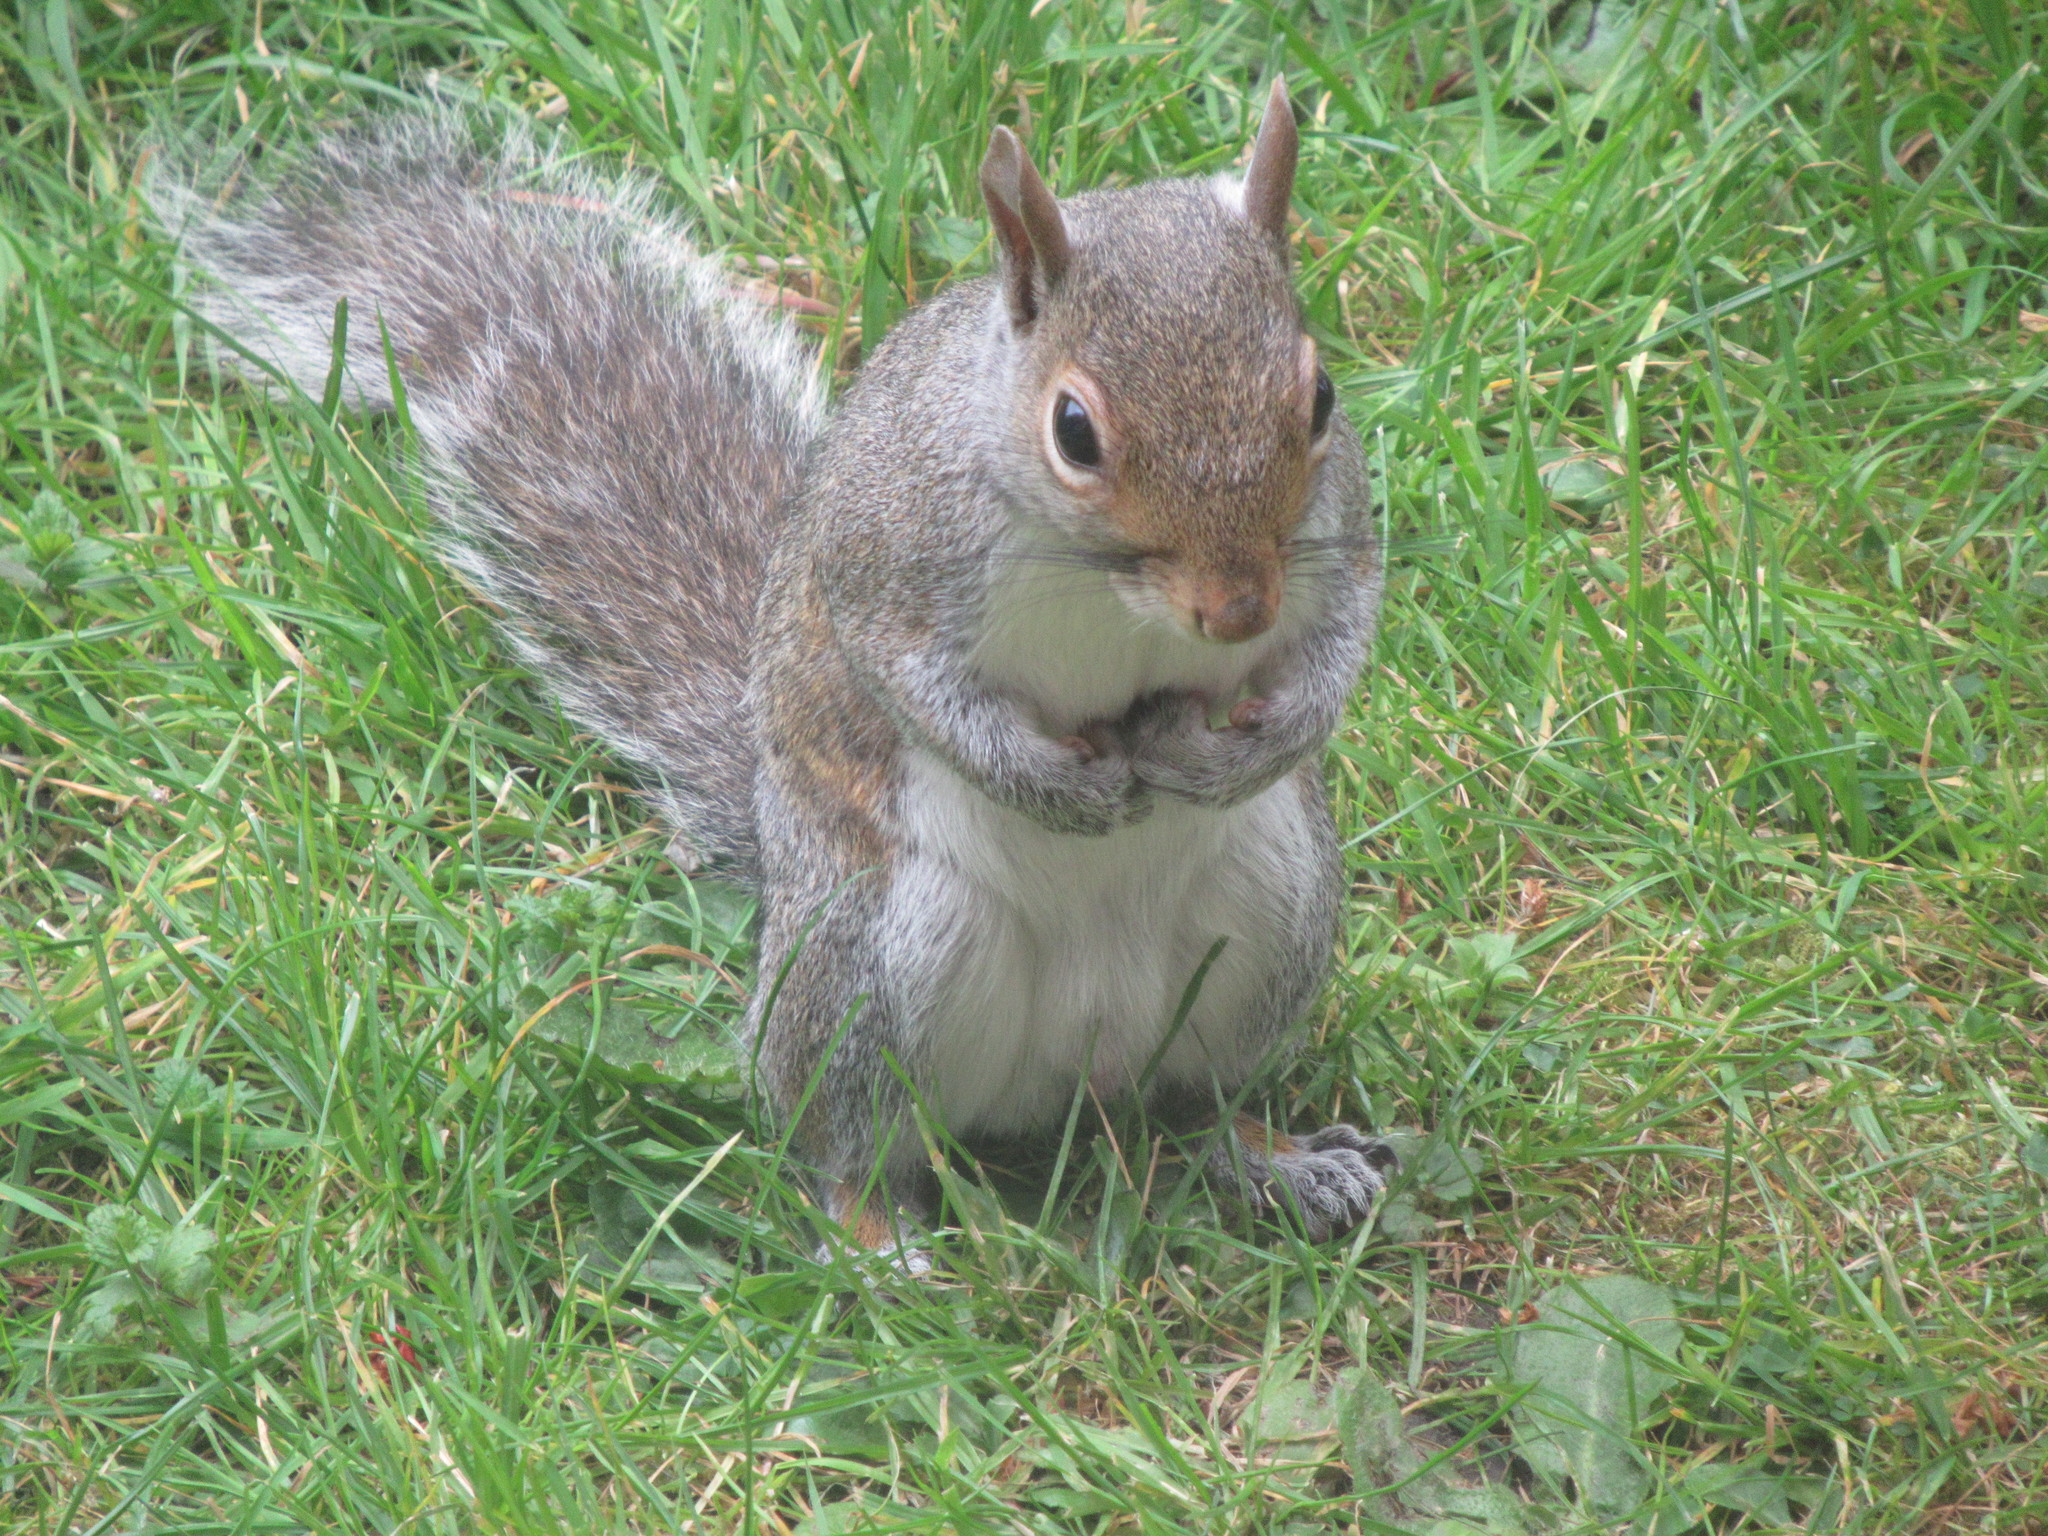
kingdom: Animalia
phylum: Chordata
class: Mammalia
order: Rodentia
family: Sciuridae
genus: Sciurus
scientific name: Sciurus carolinensis
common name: Eastern gray squirrel
